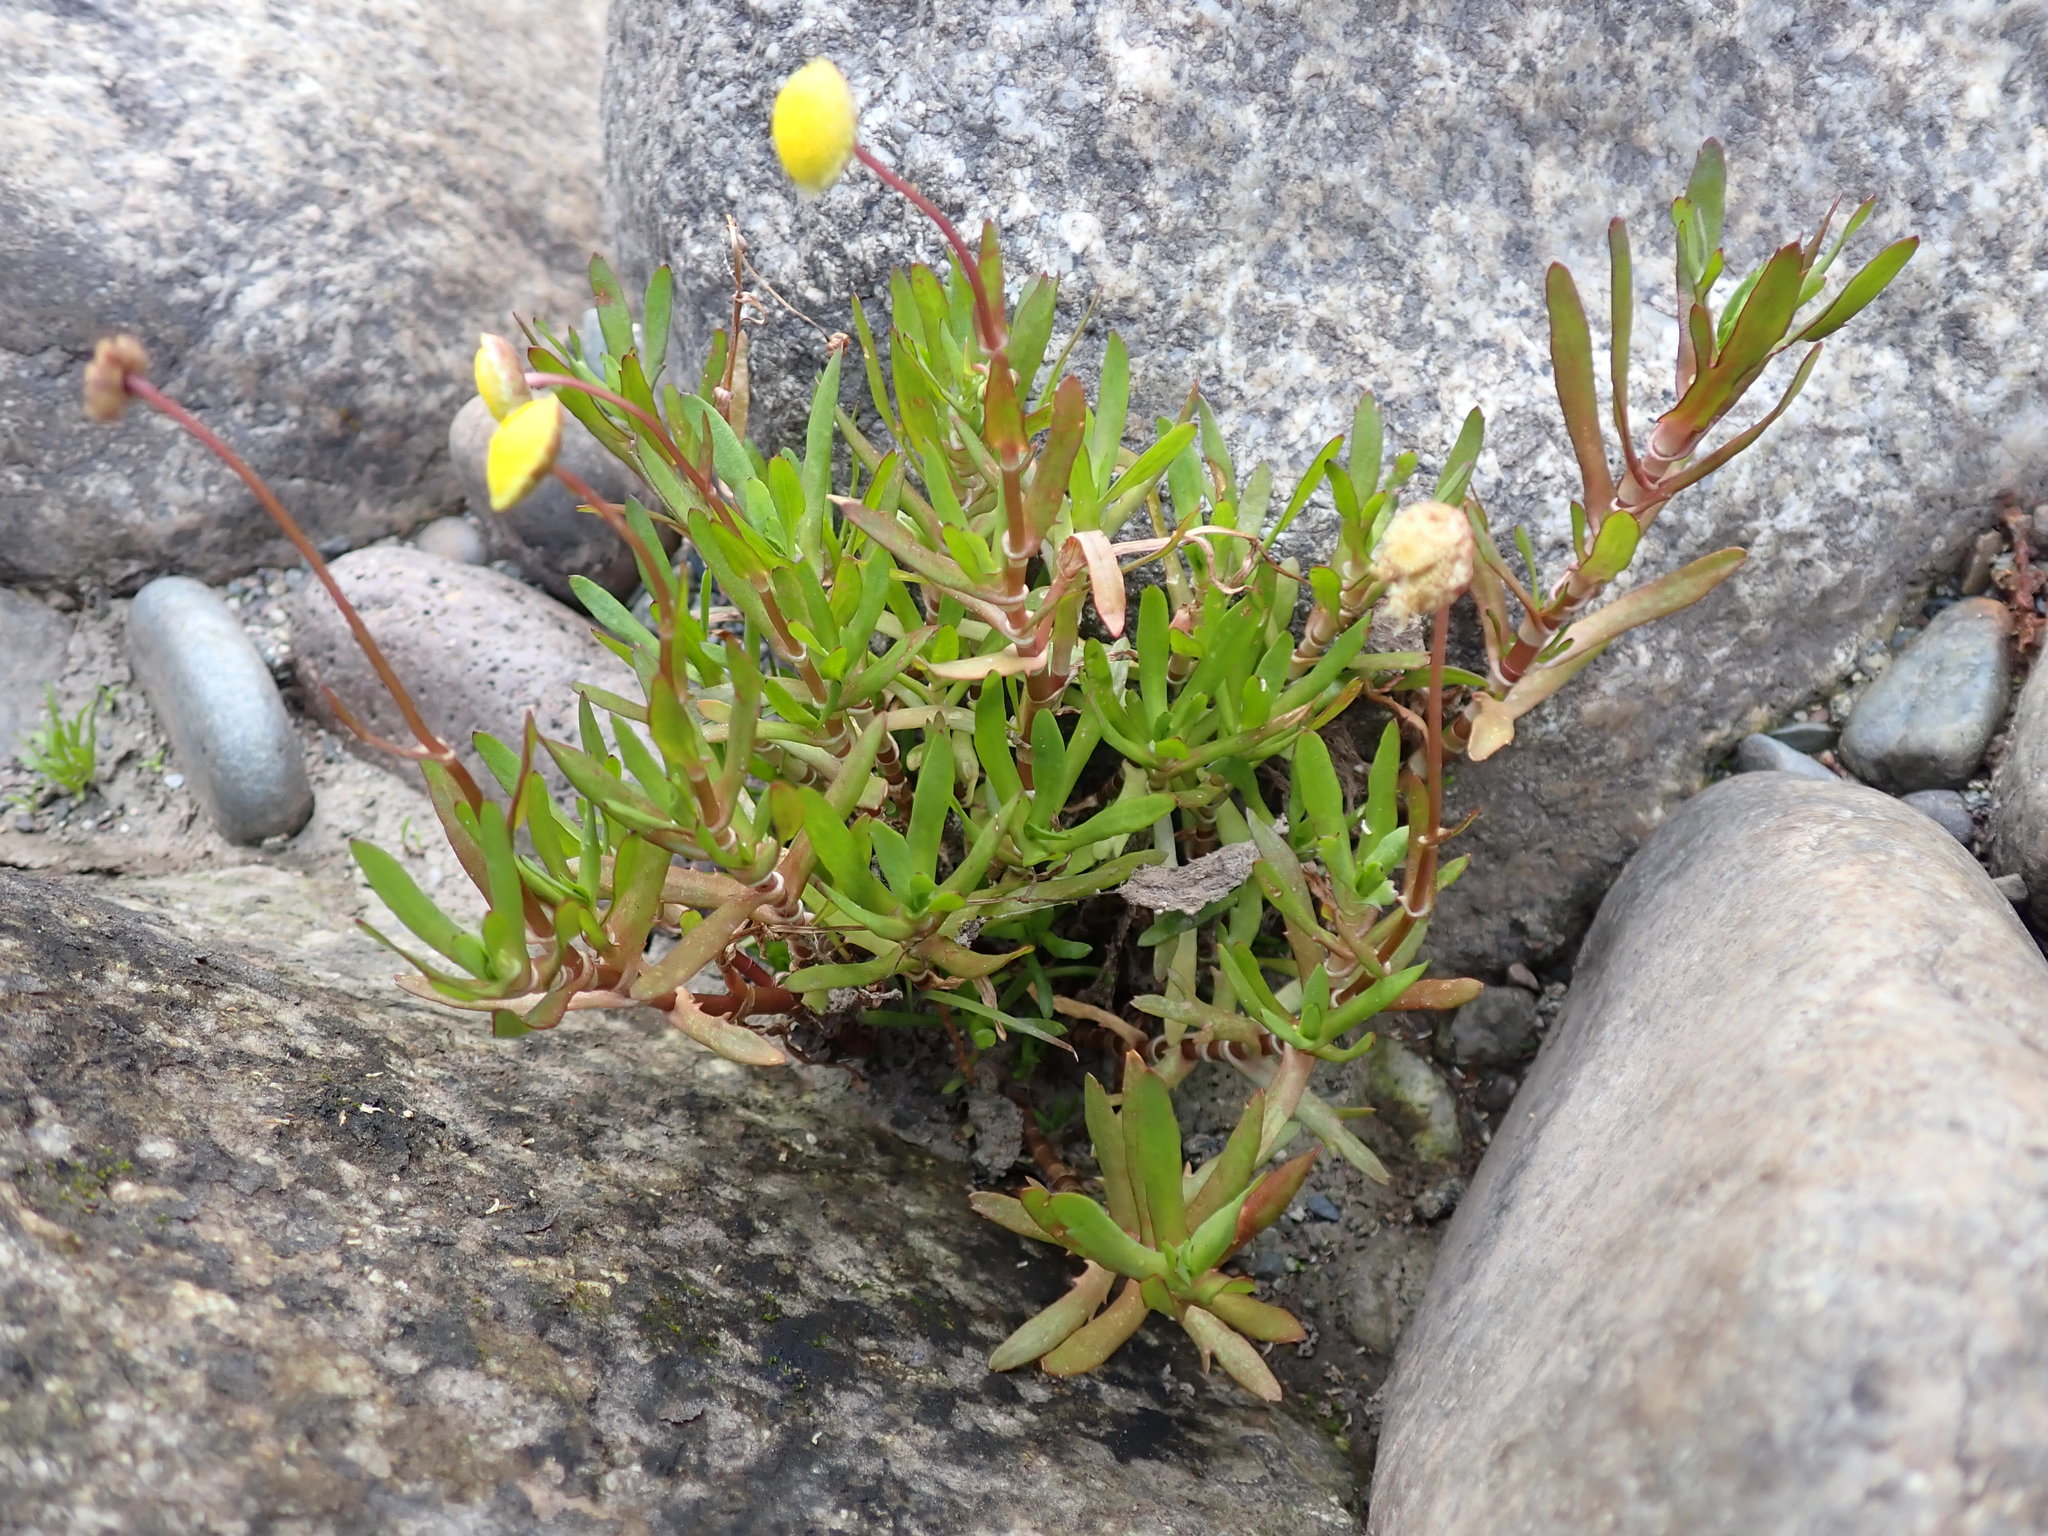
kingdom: Plantae
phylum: Tracheophyta
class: Magnoliopsida
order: Asterales
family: Asteraceae
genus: Cotula
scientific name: Cotula coronopifolia
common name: Buttonweed
